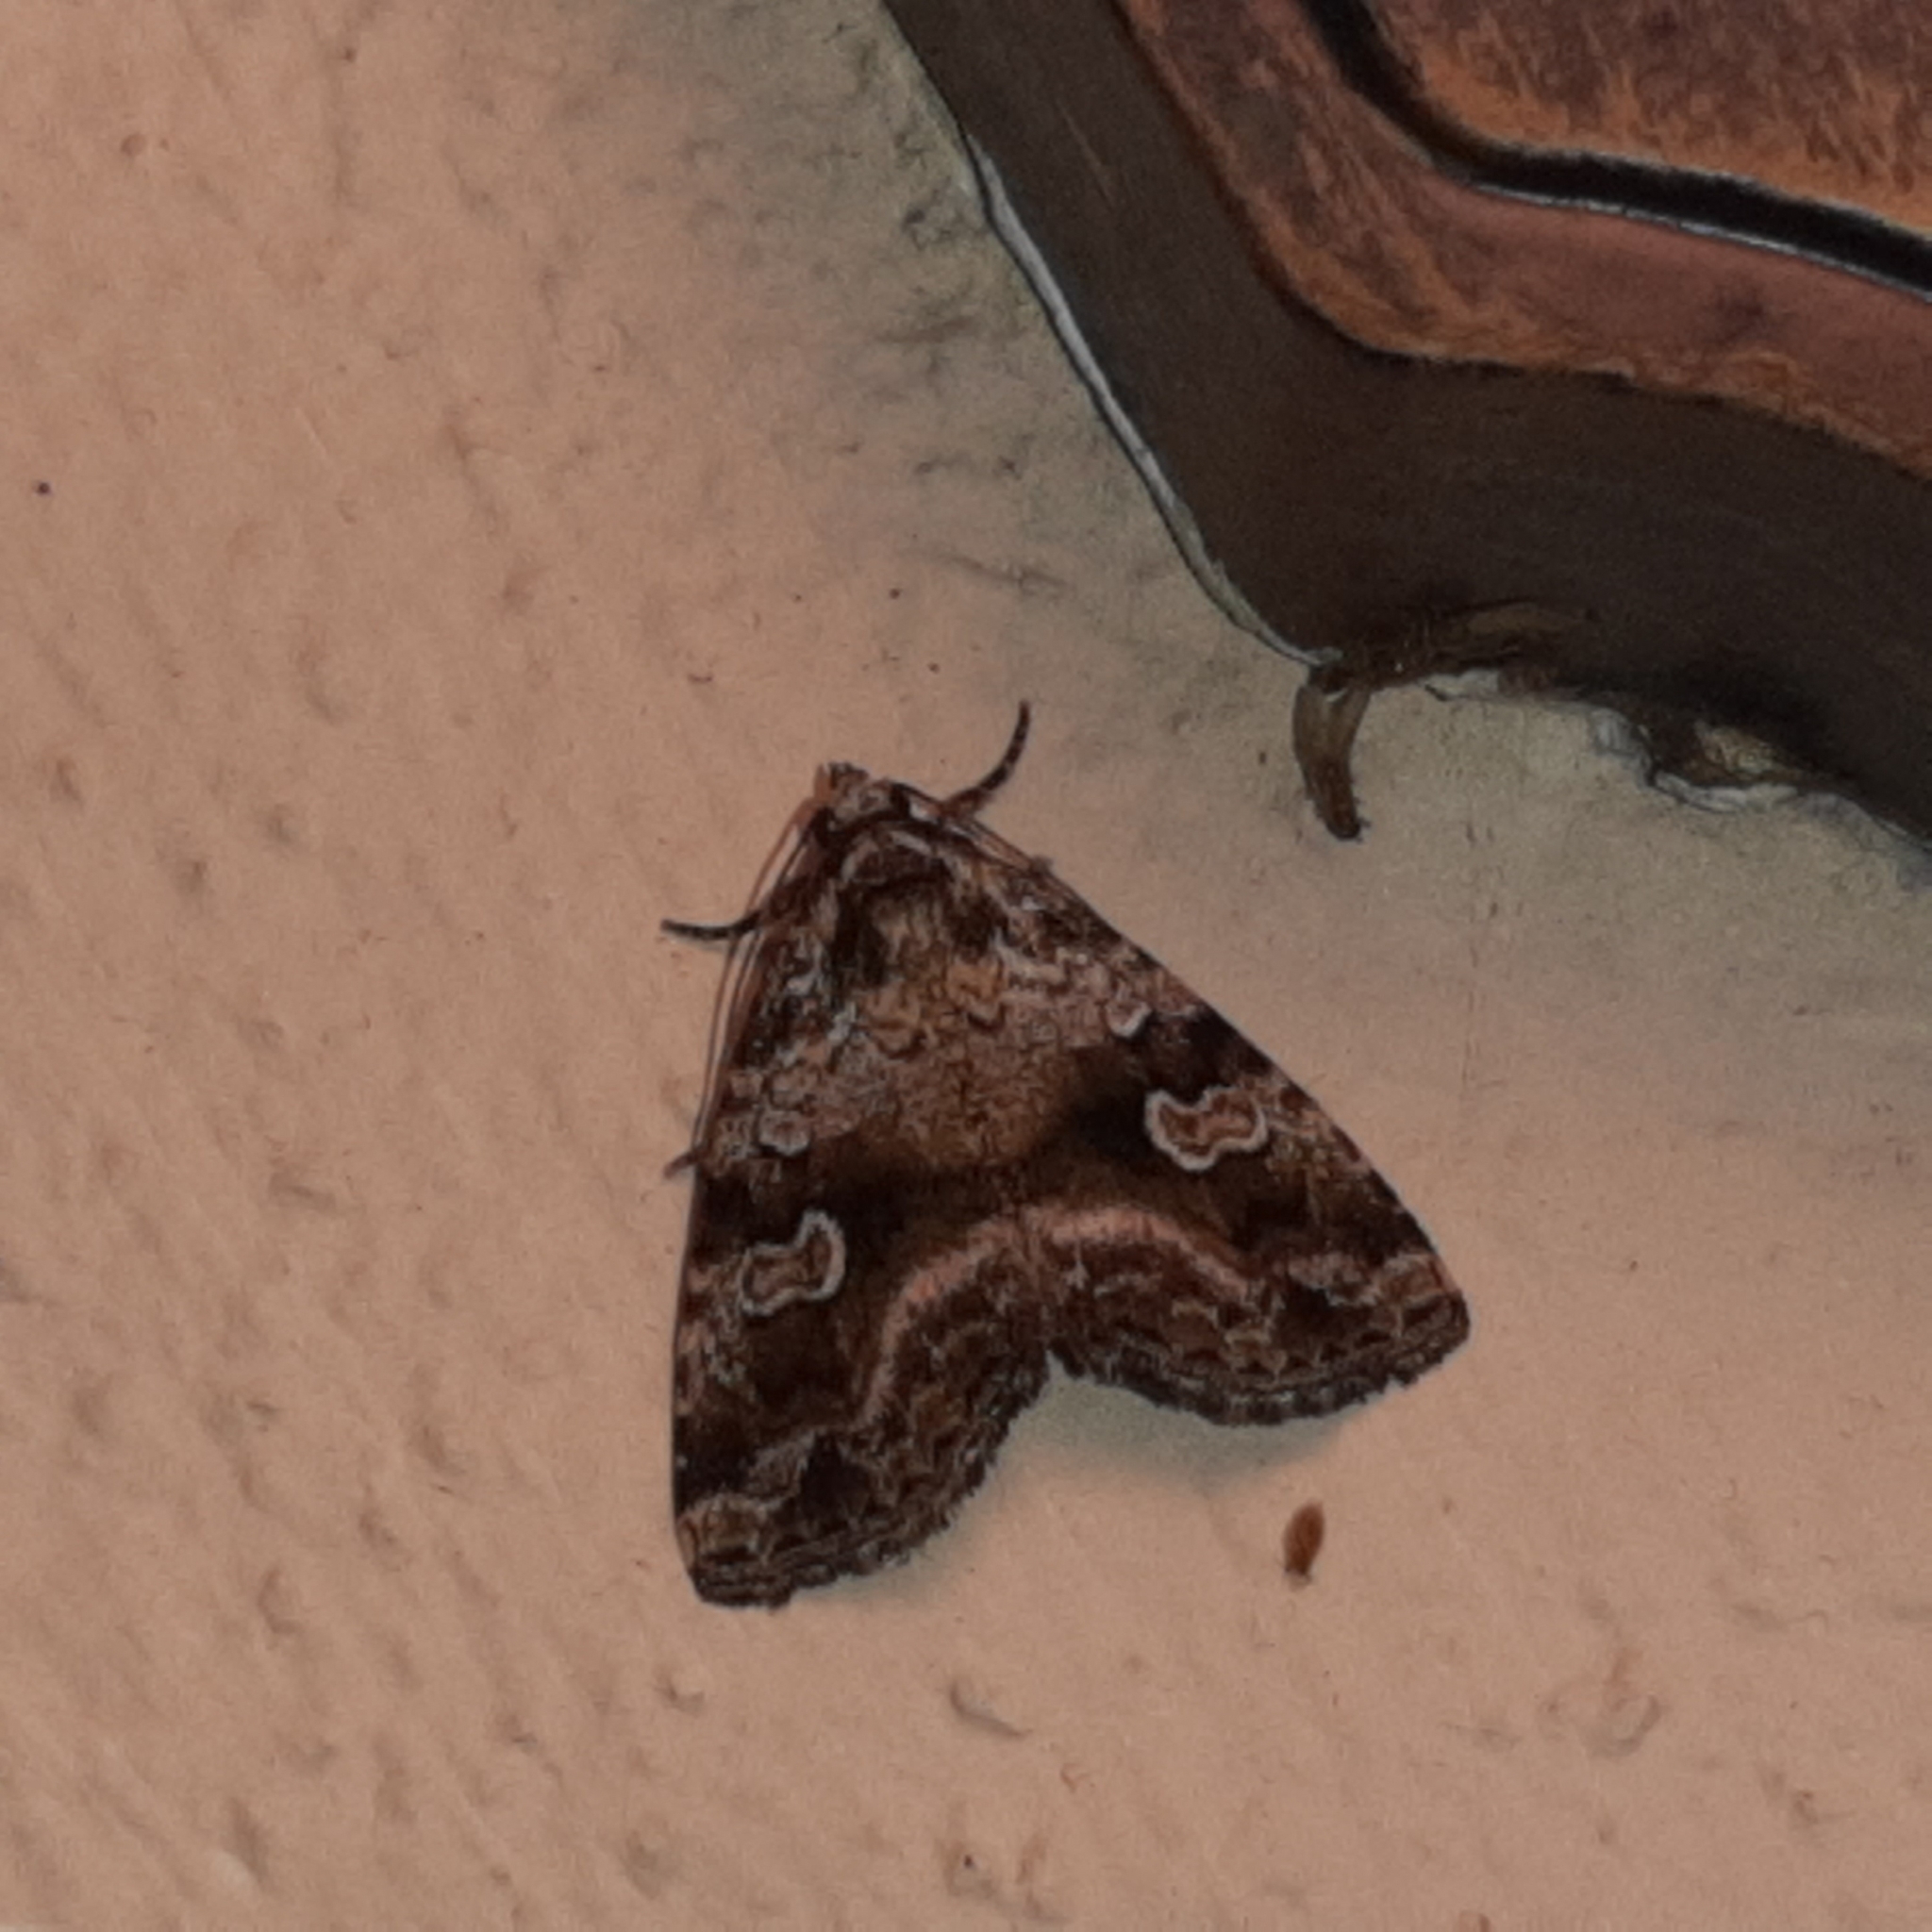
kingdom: Animalia
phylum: Arthropoda
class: Insecta
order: Lepidoptera
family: Noctuidae
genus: Mictochroa
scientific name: Mictochroa zonella
